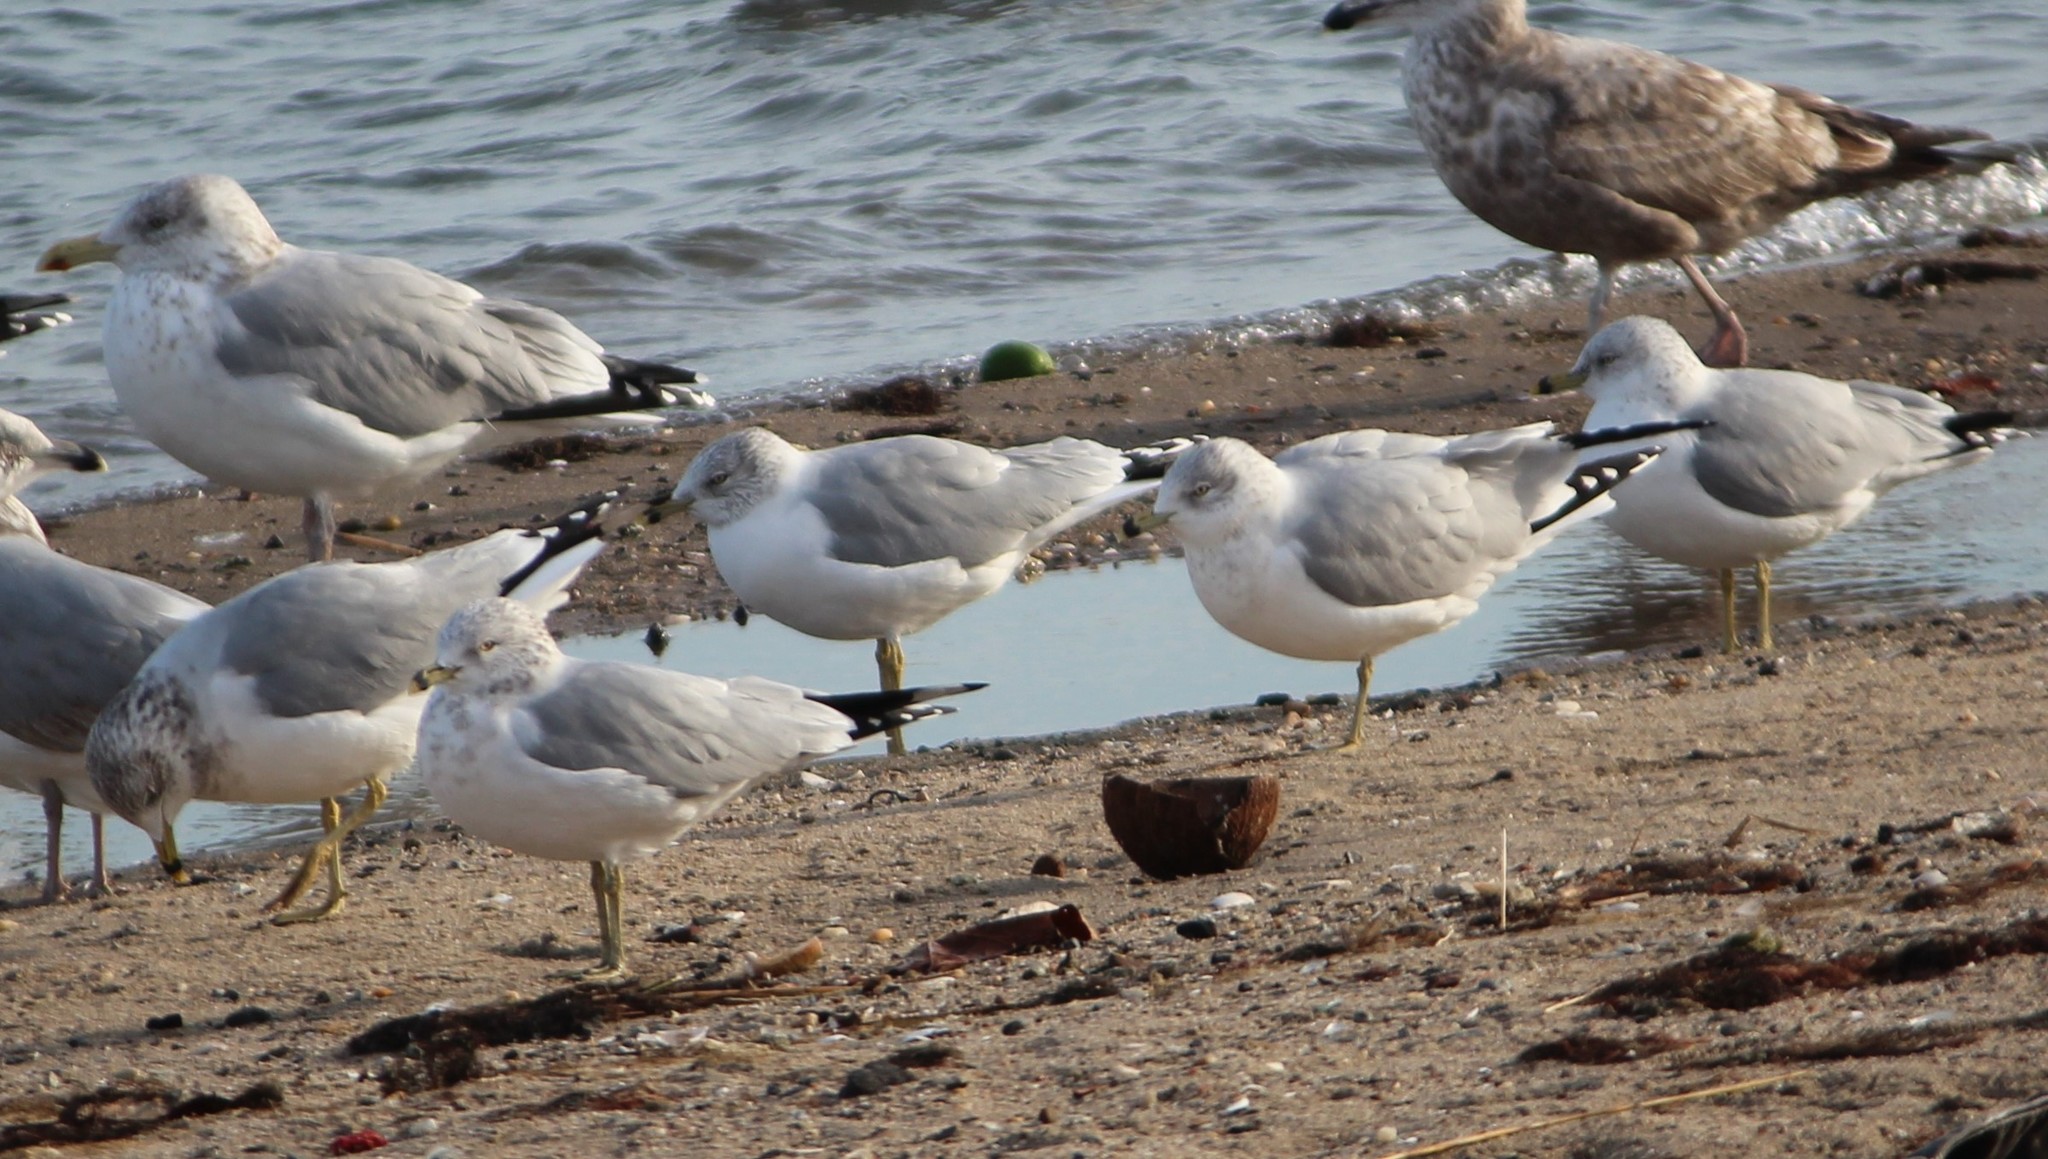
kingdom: Animalia
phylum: Chordata
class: Aves
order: Charadriiformes
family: Laridae
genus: Larus
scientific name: Larus delawarensis
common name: Ring-billed gull
